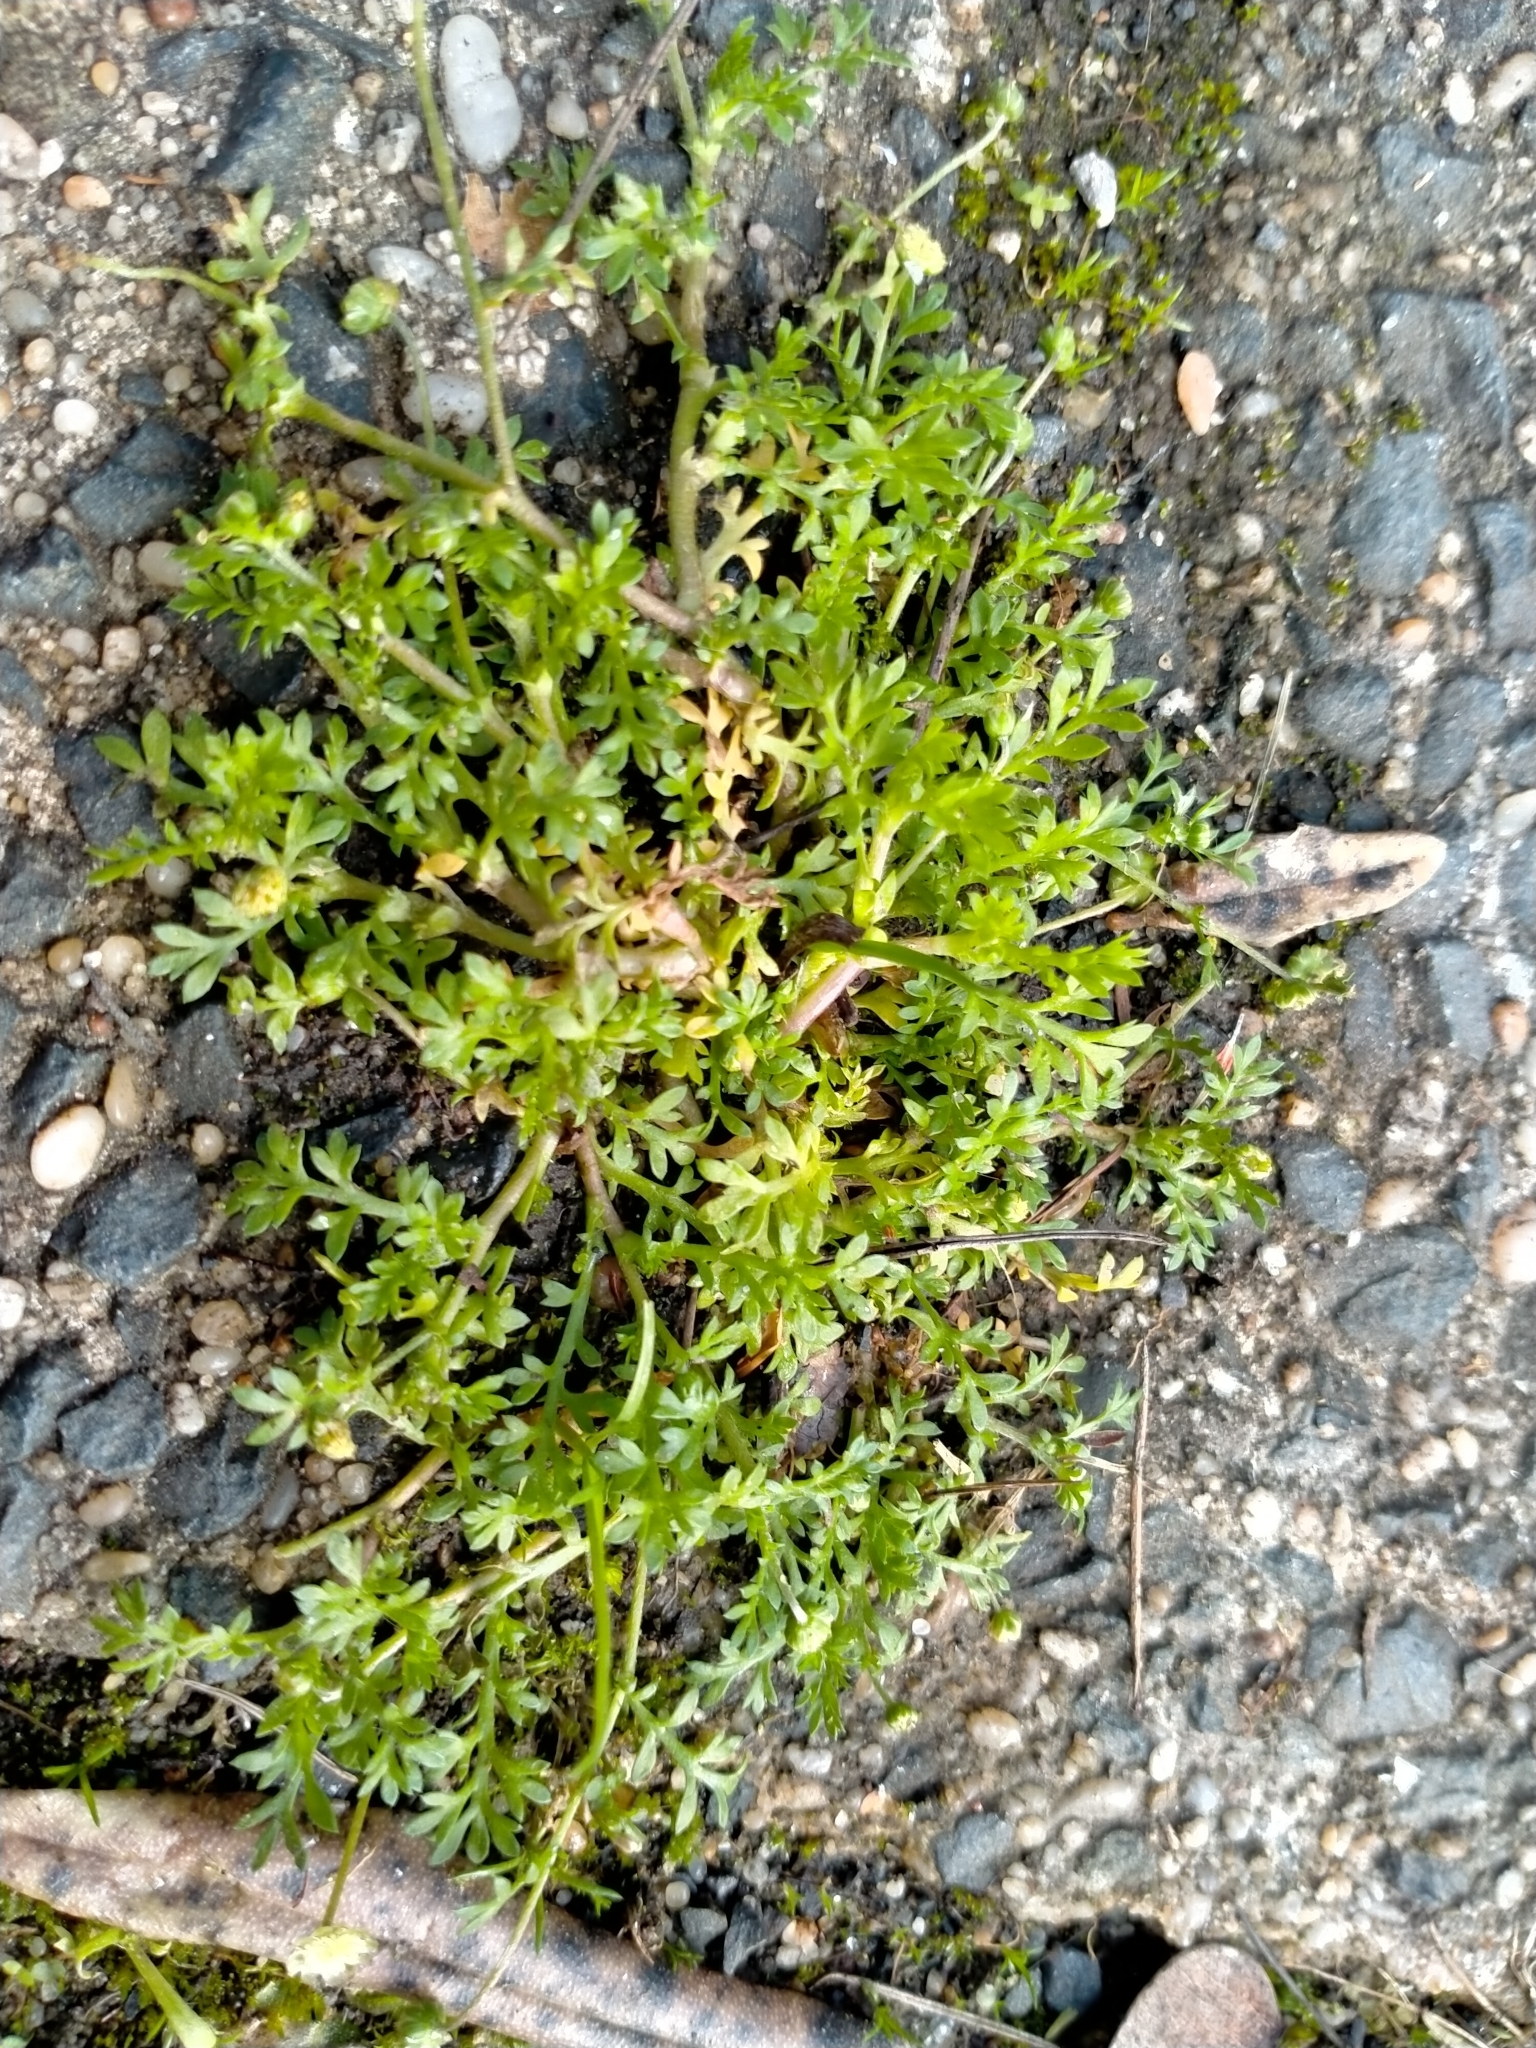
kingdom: Plantae
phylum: Tracheophyta
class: Magnoliopsida
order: Asterales
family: Asteraceae
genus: Cotula
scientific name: Cotula australis
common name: Australian waterbuttons
